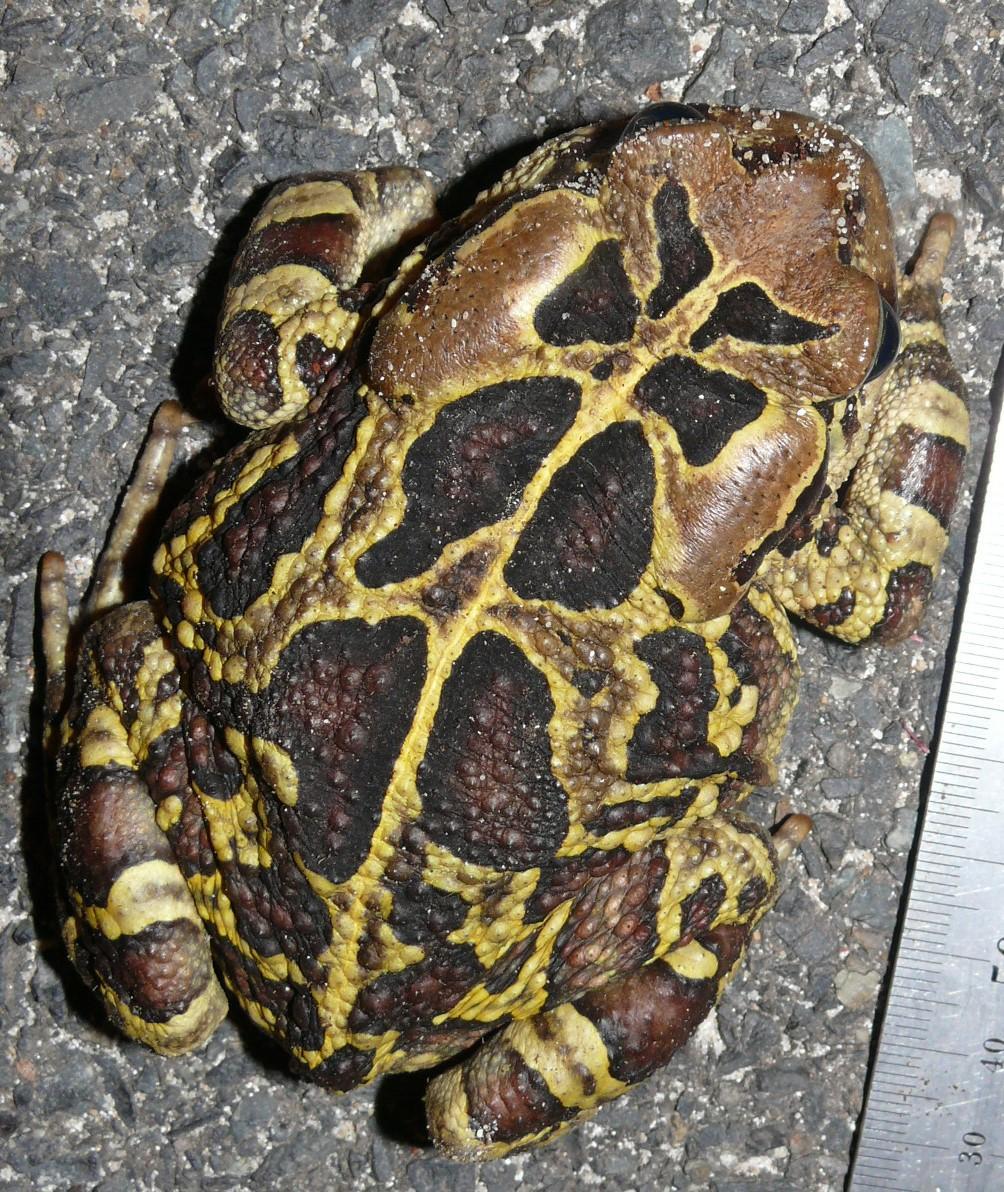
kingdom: Animalia
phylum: Chordata
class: Amphibia
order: Anura
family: Bufonidae
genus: Sclerophrys
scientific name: Sclerophrys pantherina
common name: Panther toad
